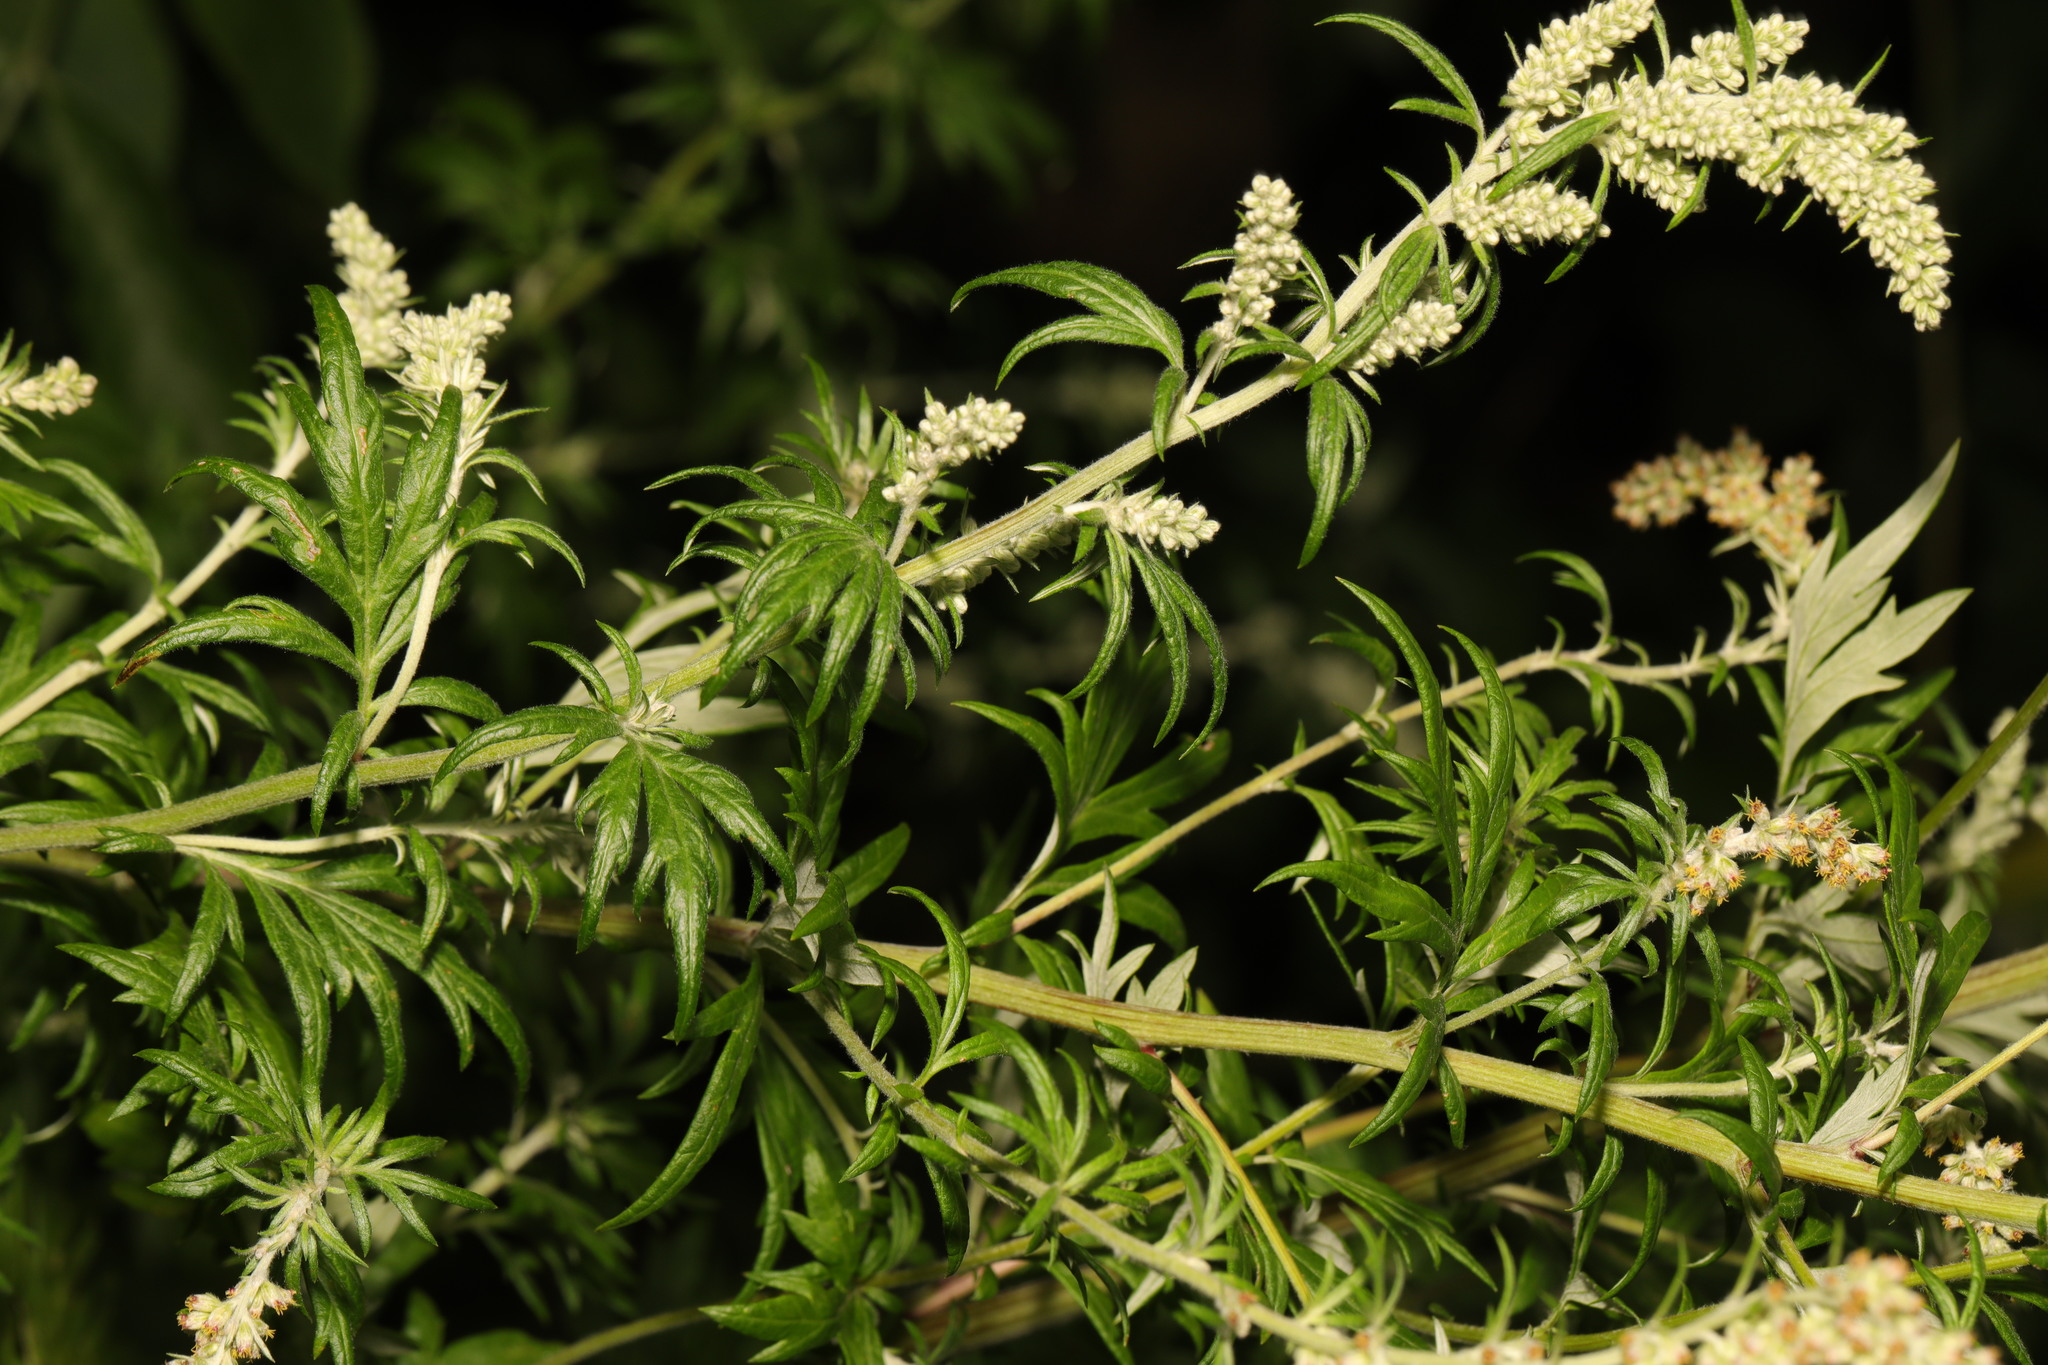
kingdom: Plantae
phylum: Tracheophyta
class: Magnoliopsida
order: Asterales
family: Asteraceae
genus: Artemisia
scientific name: Artemisia vulgaris
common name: Mugwort
